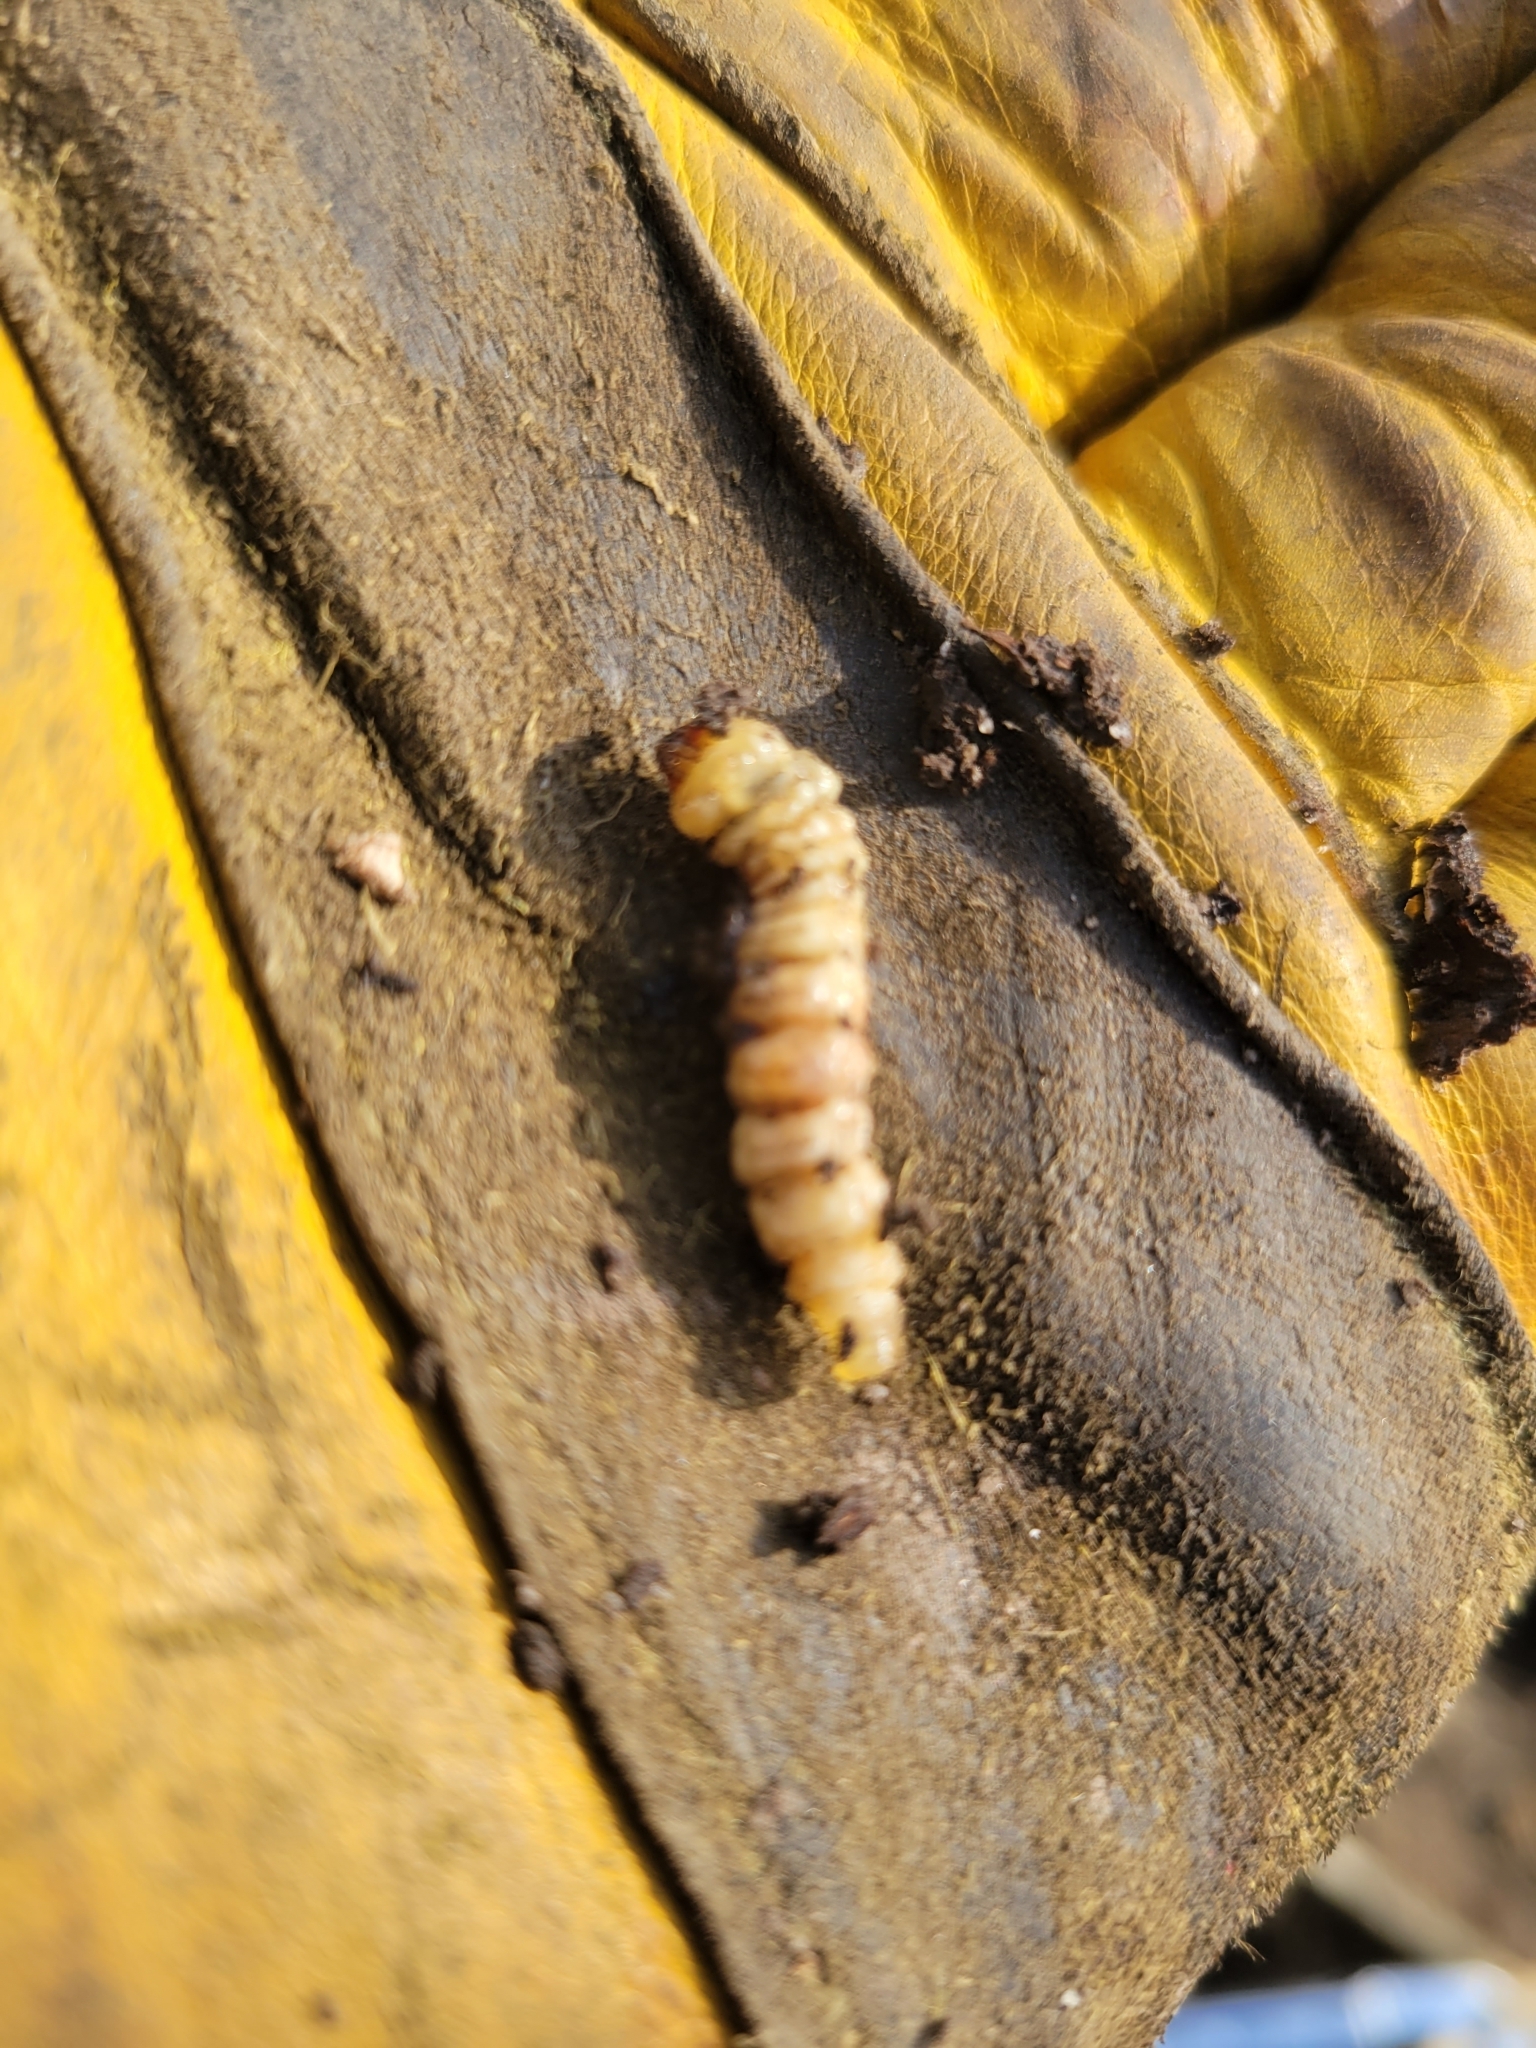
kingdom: Animalia
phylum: Arthropoda
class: Insecta
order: Lepidoptera
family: Sesiidae
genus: Eichlinia
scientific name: Eichlinia cucurbitae
